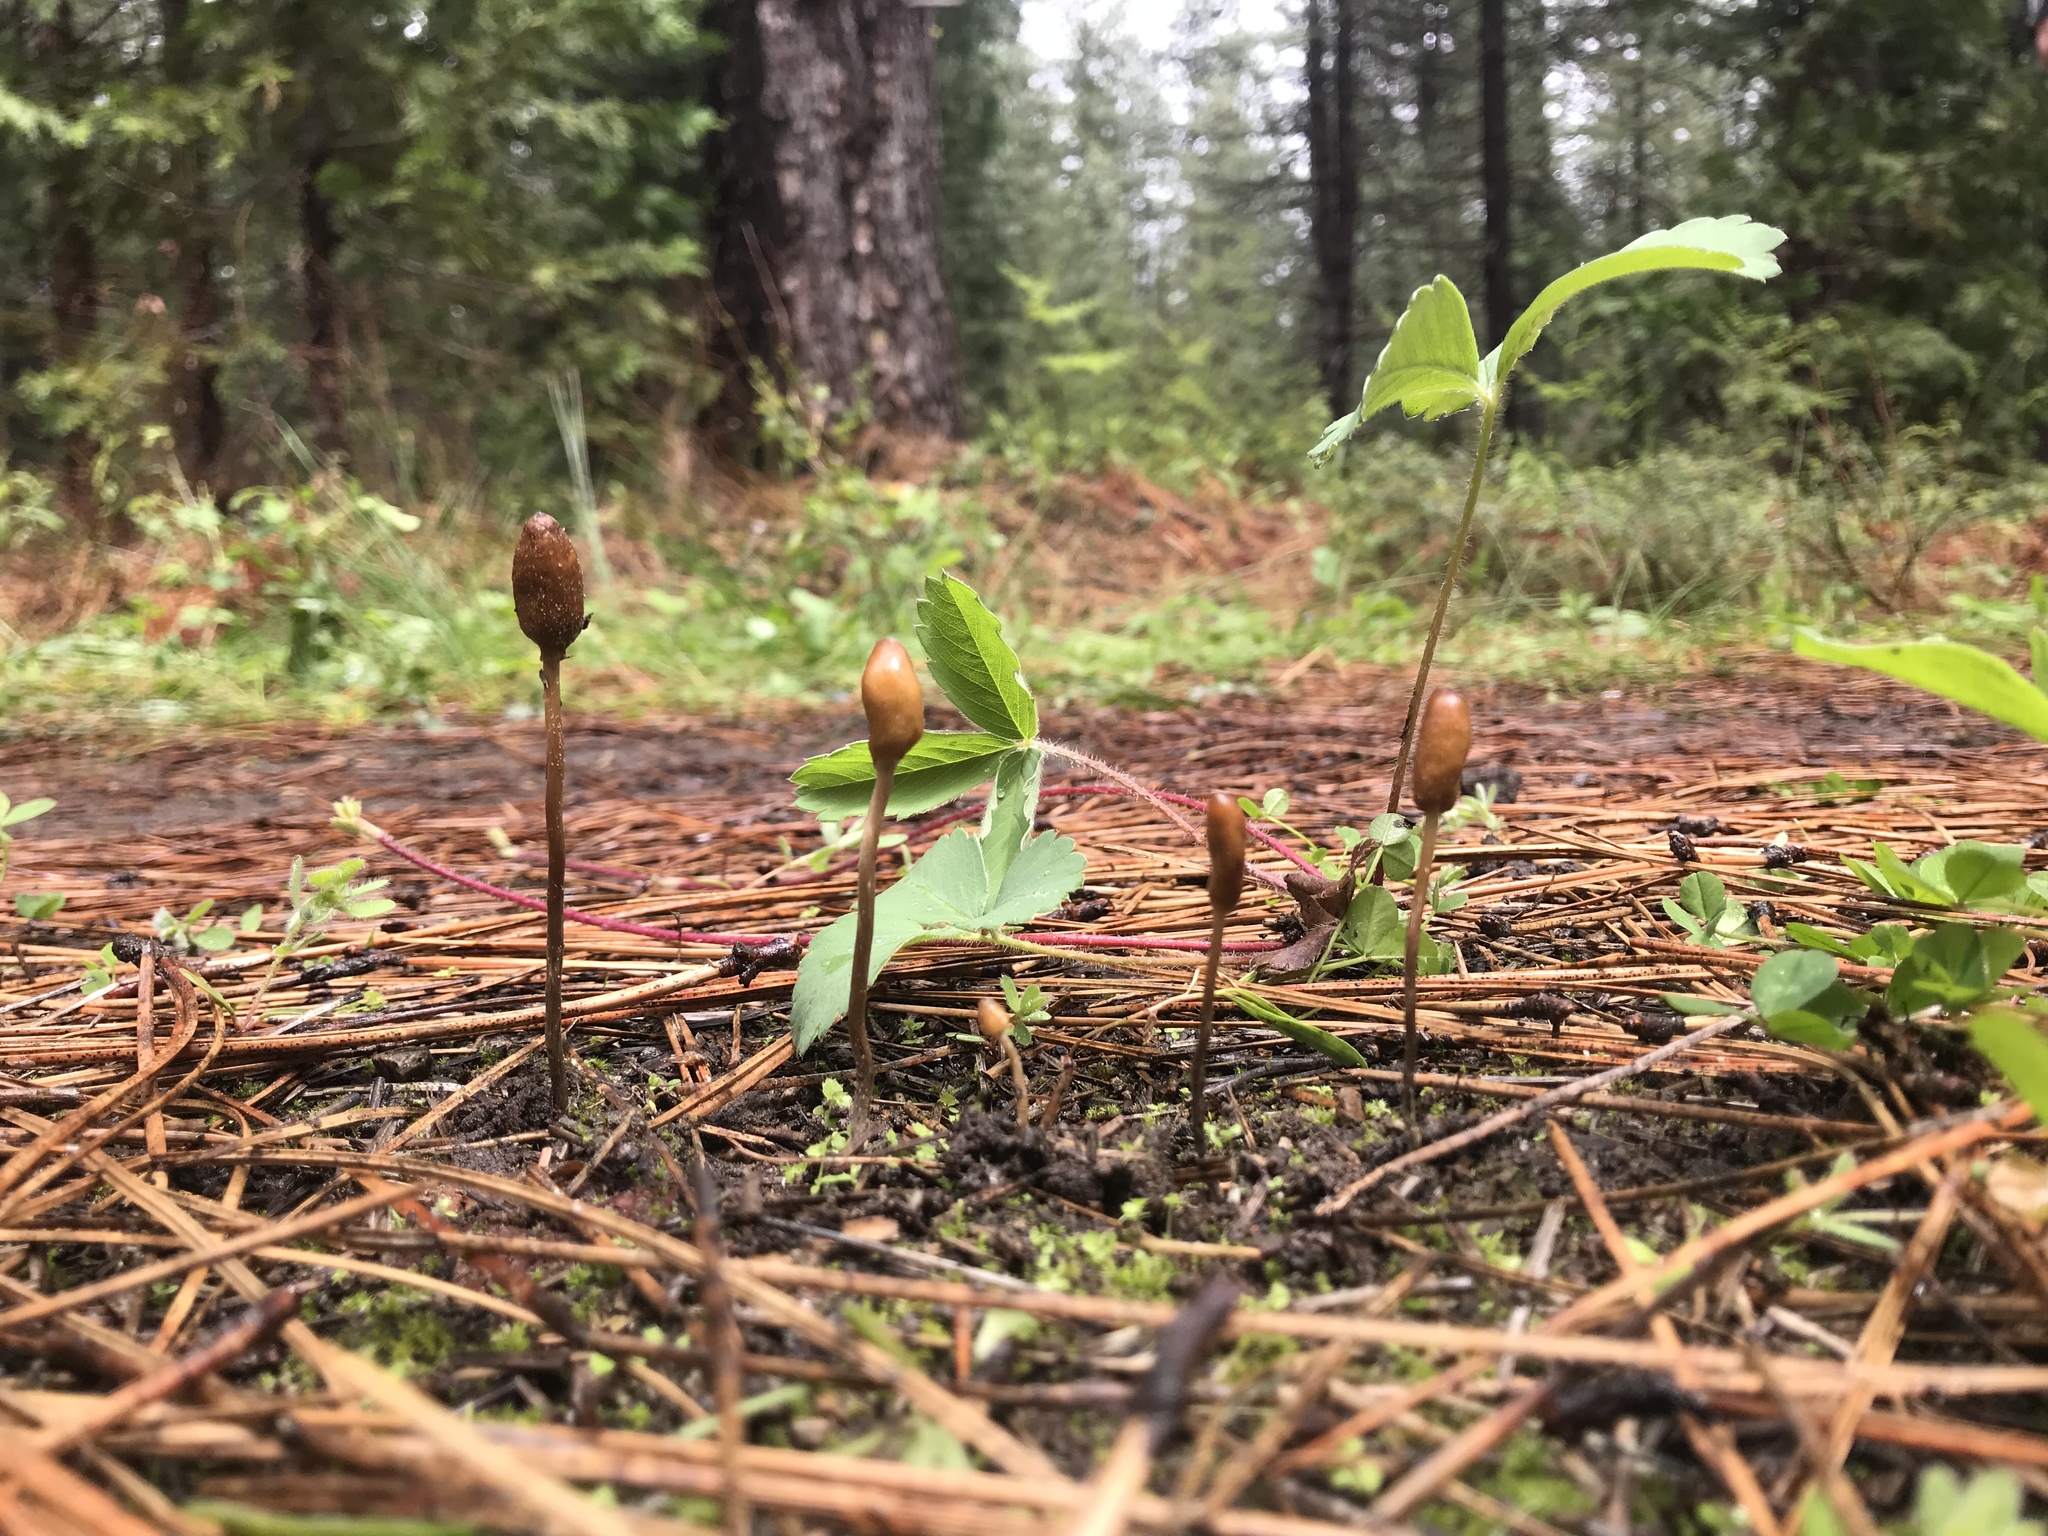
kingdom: Fungi
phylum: Basidiomycota
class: Agaricomycetes
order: Agaricales
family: Bolbitiaceae
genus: Galeropsis
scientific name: Galeropsis polytrichoides
